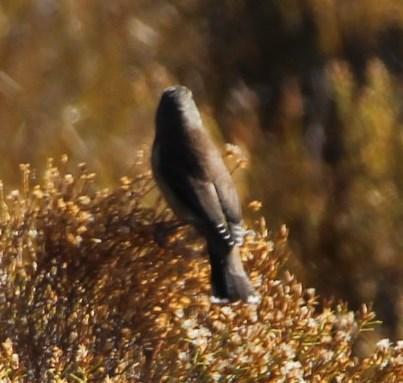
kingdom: Animalia
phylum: Chordata
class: Aves
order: Passeriformes
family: Fringillidae
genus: Crithagra
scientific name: Crithagra totta
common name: Cape siskin
